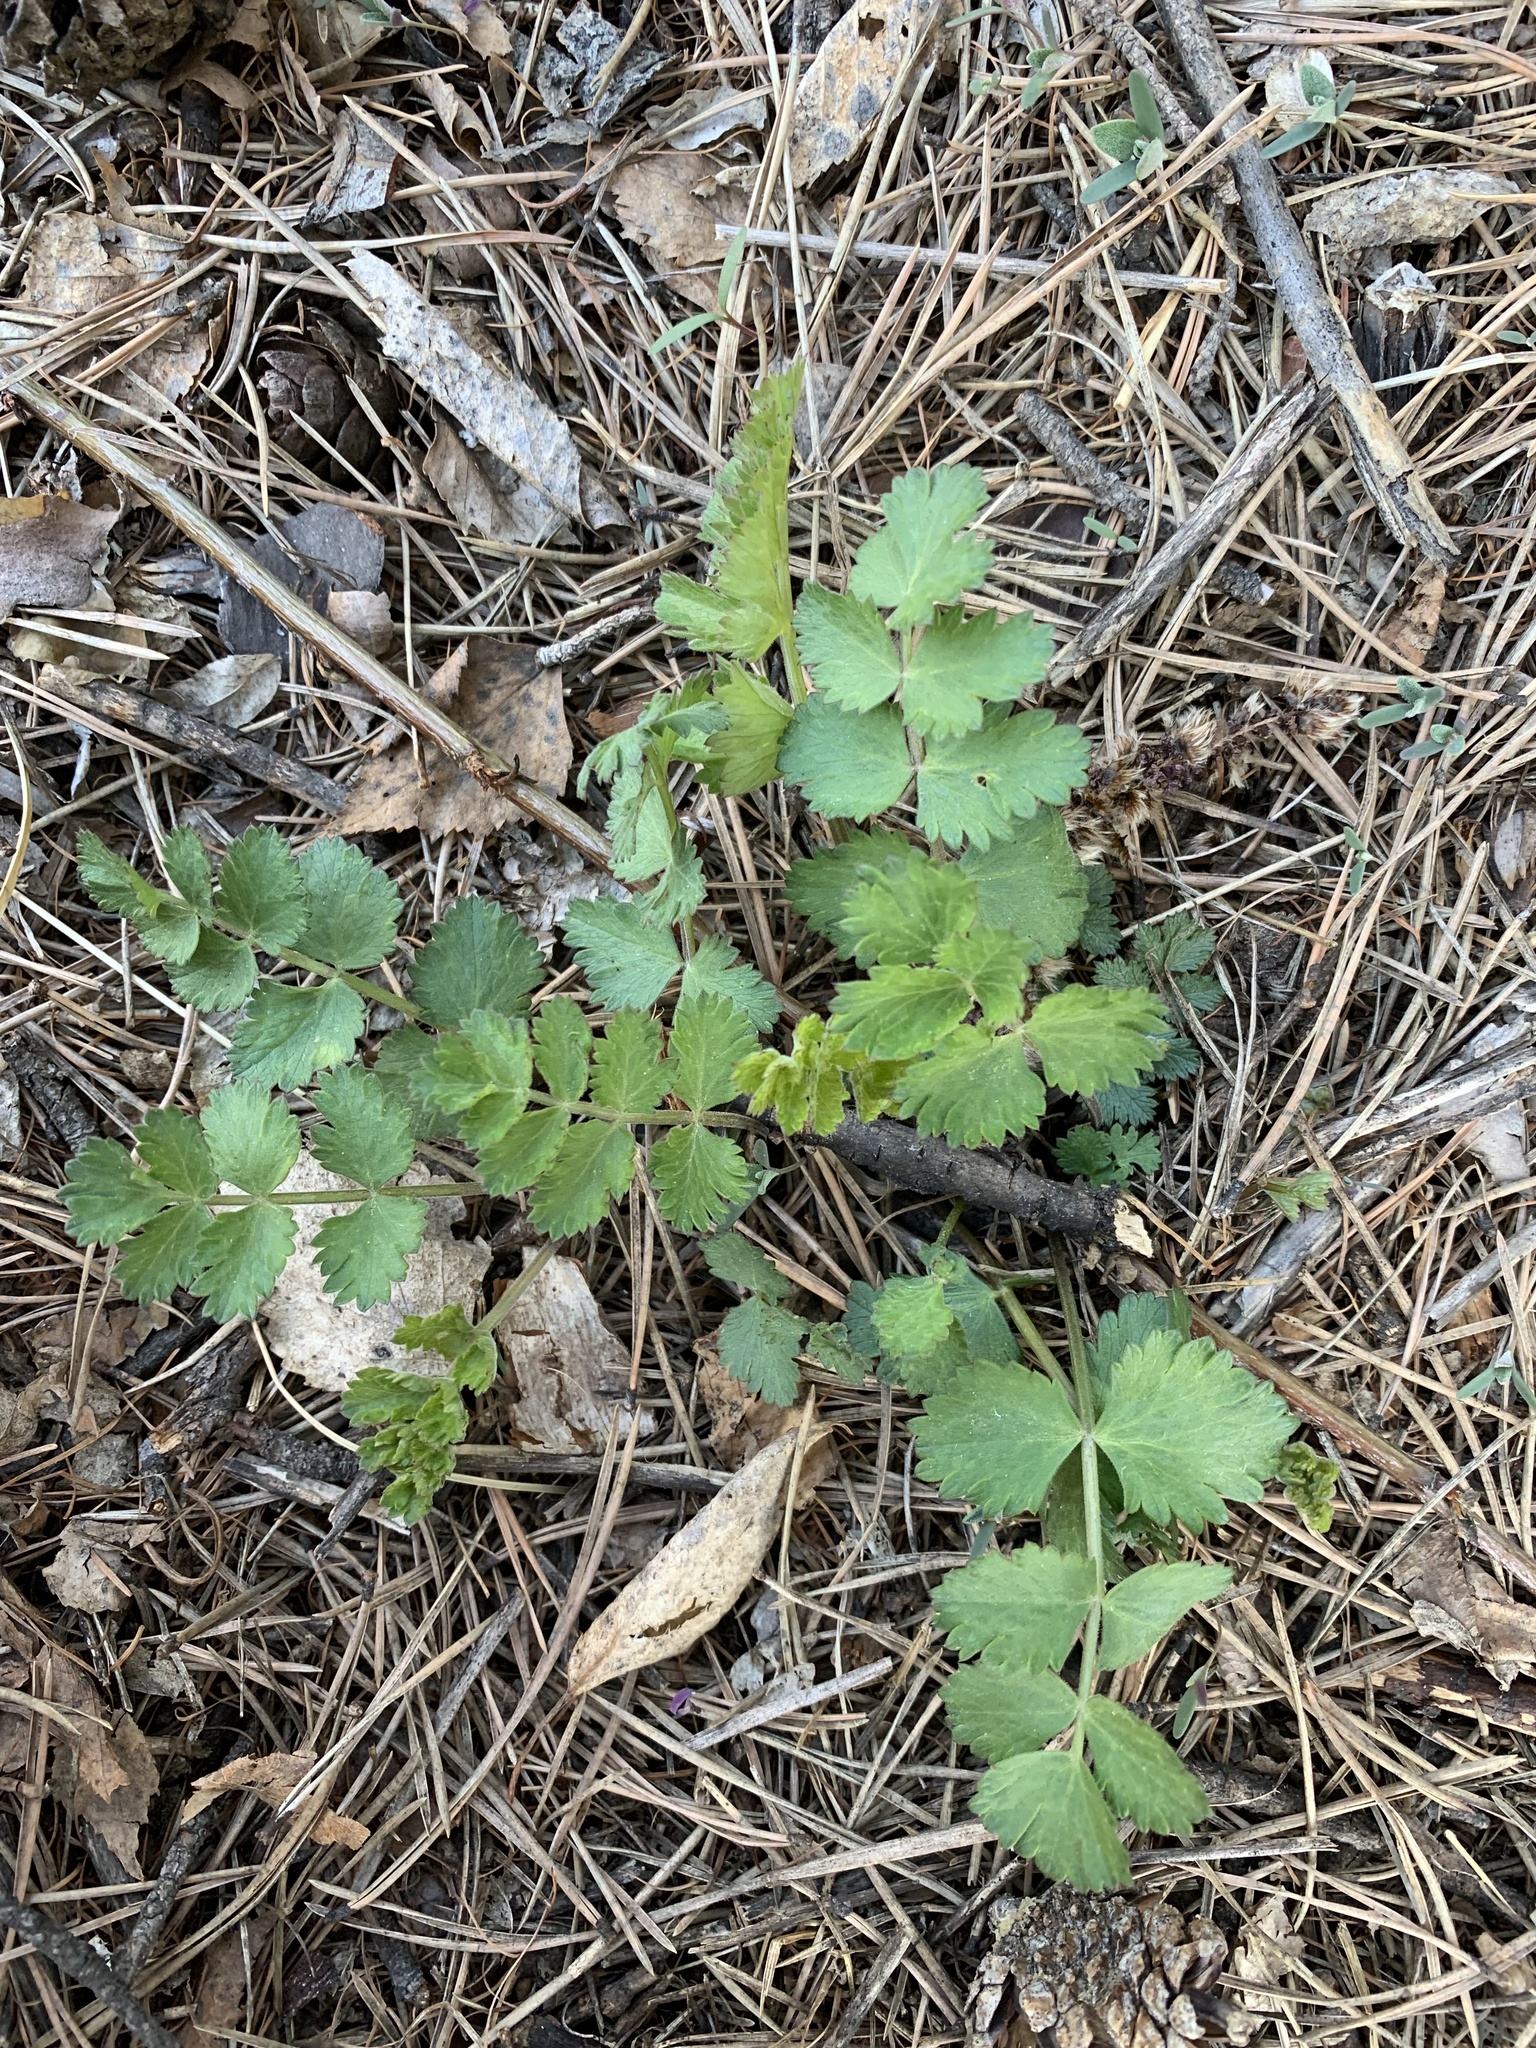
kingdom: Plantae
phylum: Tracheophyta
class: Magnoliopsida
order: Apiales
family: Apiaceae
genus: Pimpinella
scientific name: Pimpinella saxifraga
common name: Burnet-saxifrage
